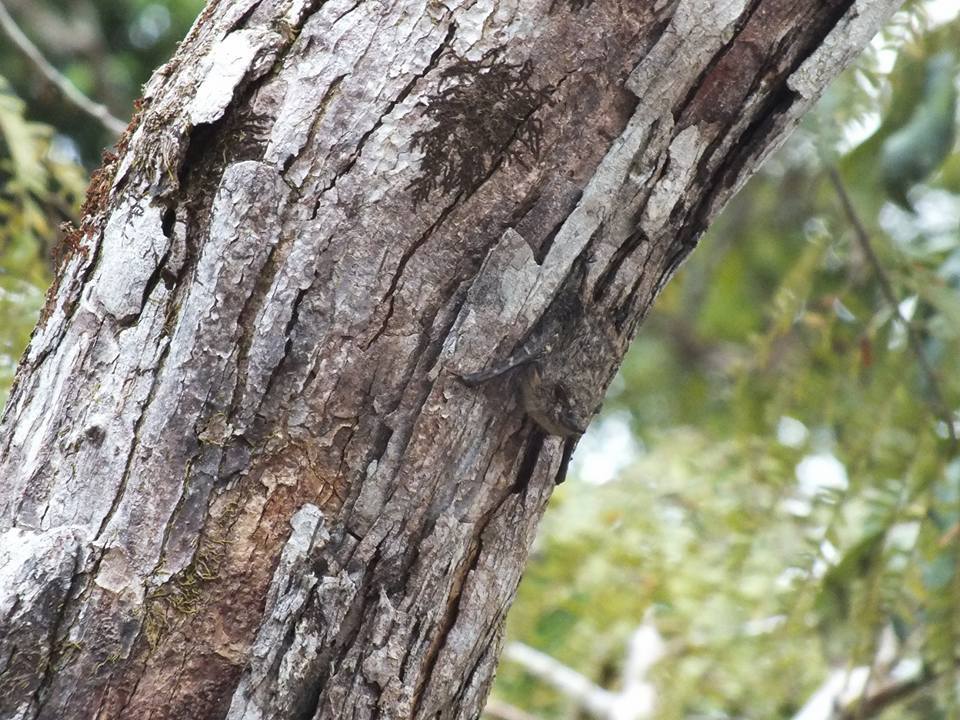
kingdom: Animalia
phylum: Chordata
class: Mammalia
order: Chiroptera
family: Emballonuridae
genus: Rhynchonycteris
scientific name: Rhynchonycteris naso
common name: Proboscis bat
